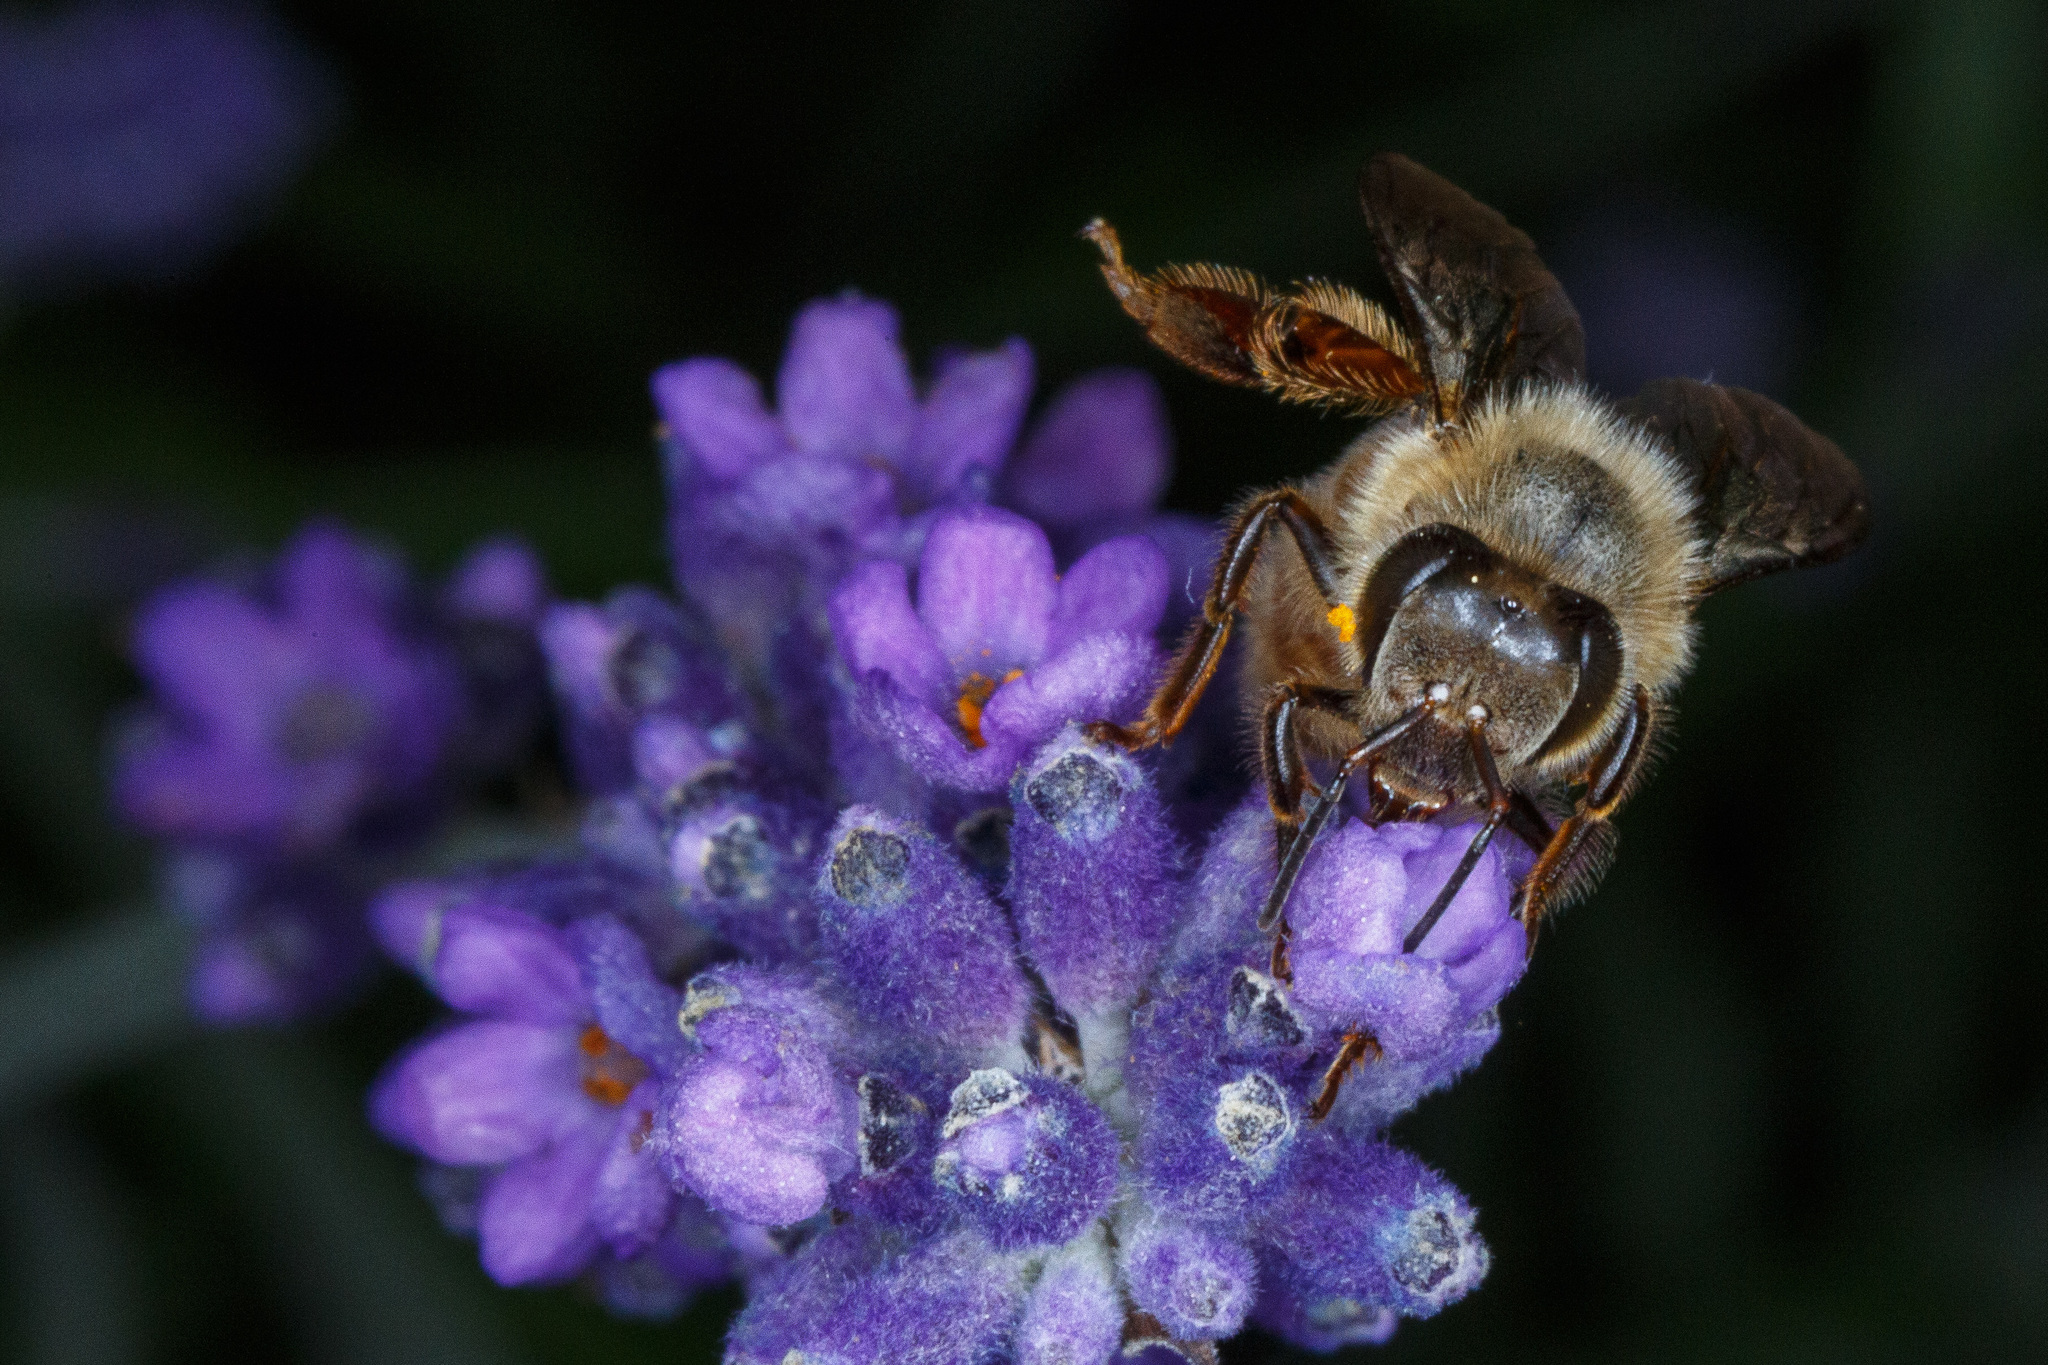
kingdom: Animalia
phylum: Arthropoda
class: Insecta
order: Hymenoptera
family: Apidae
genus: Apis
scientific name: Apis mellifera
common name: Honey bee
